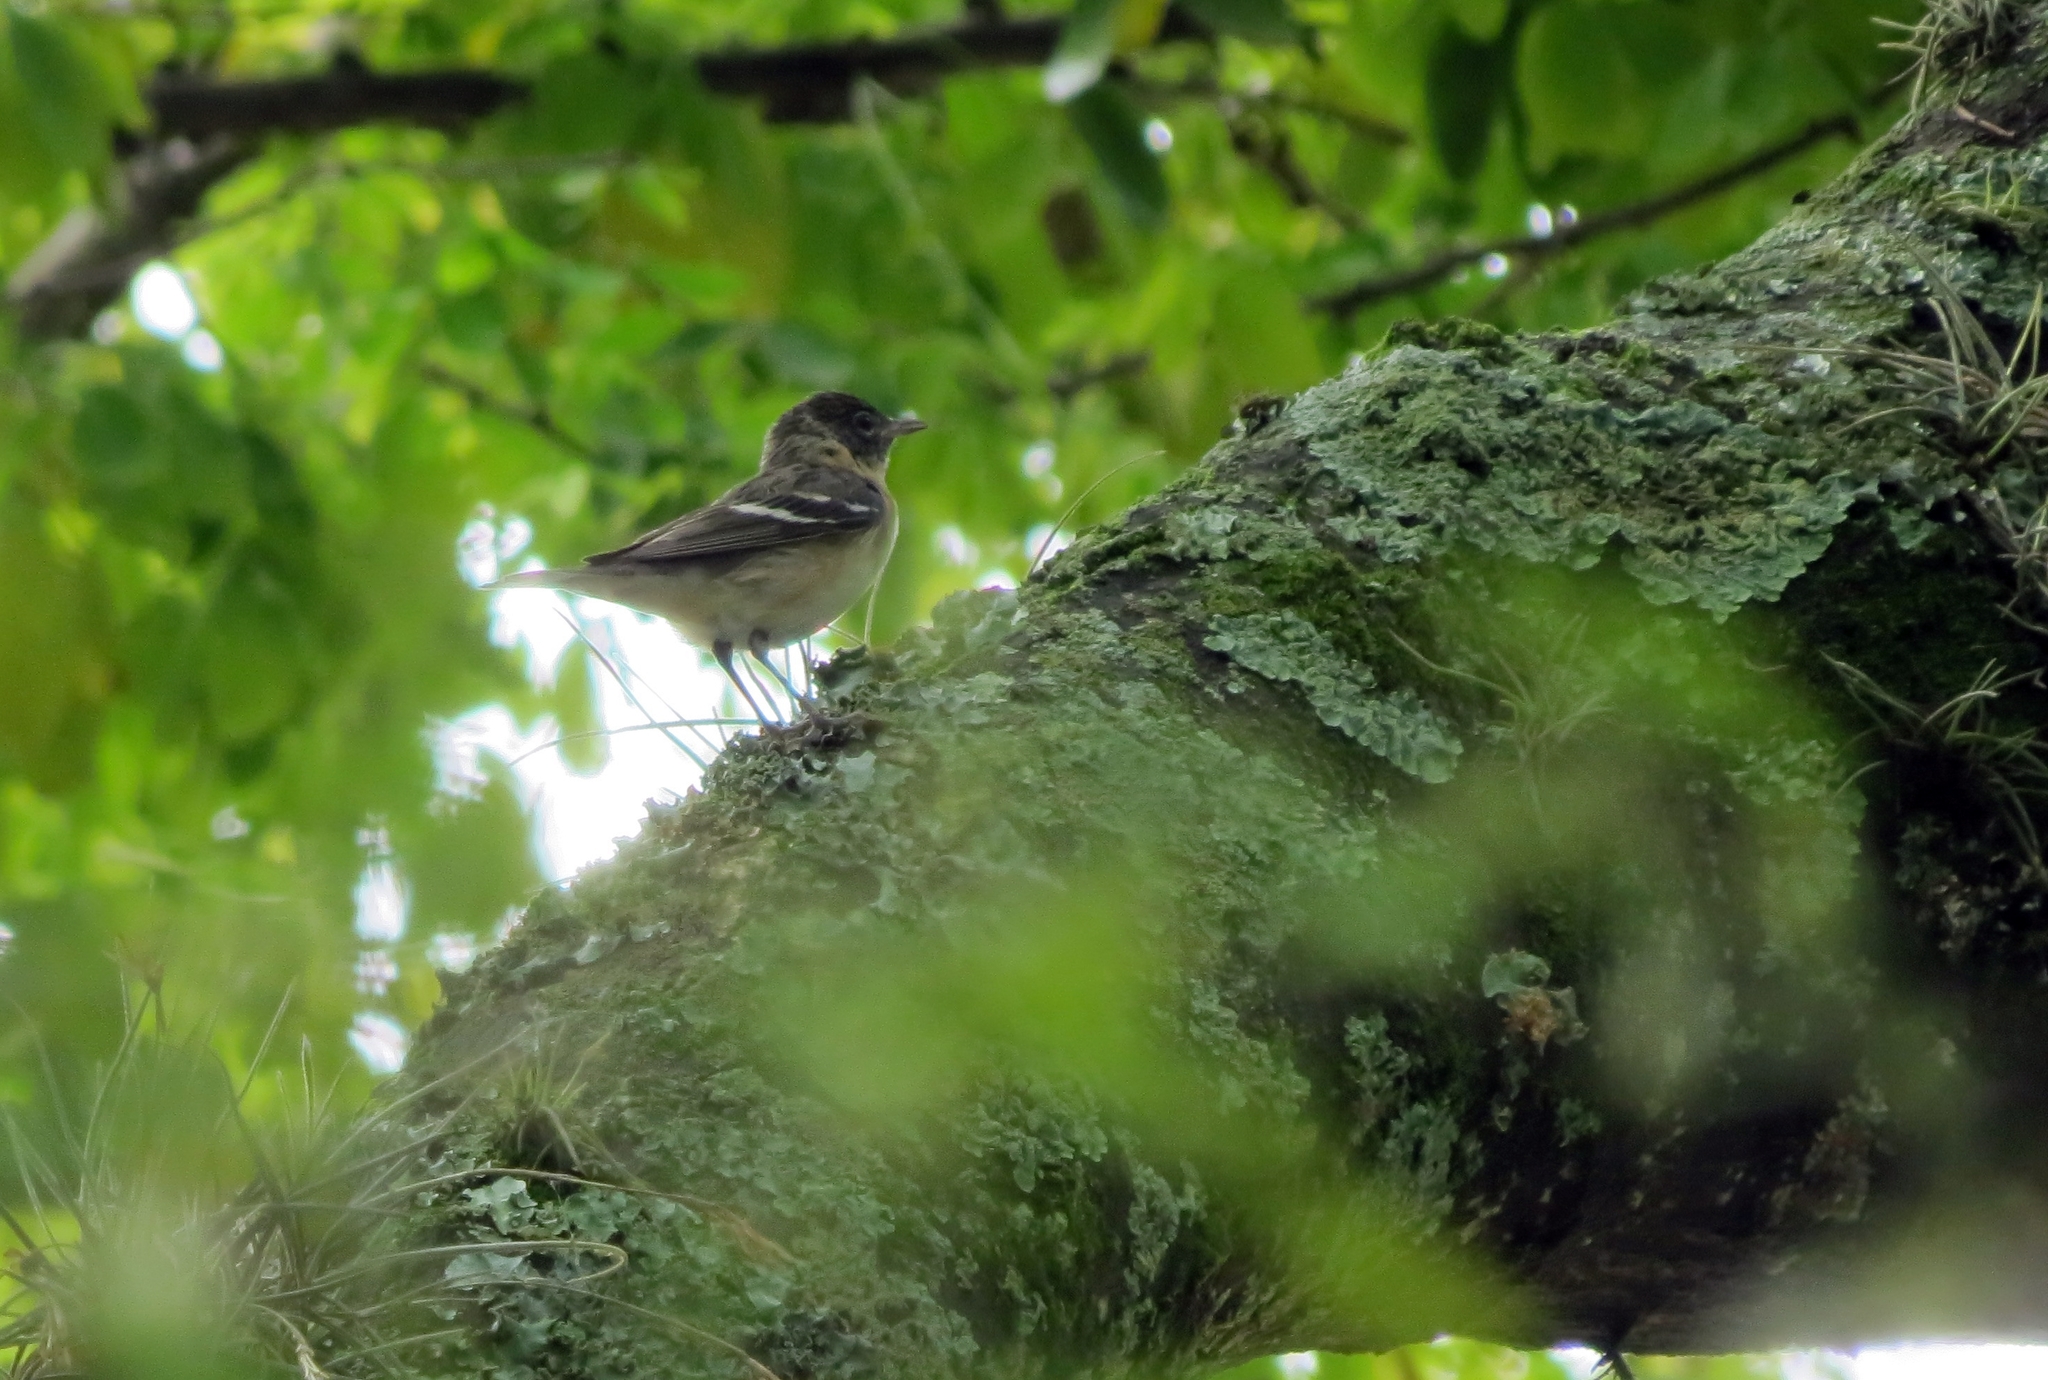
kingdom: Animalia
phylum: Chordata
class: Aves
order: Passeriformes
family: Parulidae
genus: Setophaga
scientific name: Setophaga castanea
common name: Bay-breasted warbler
